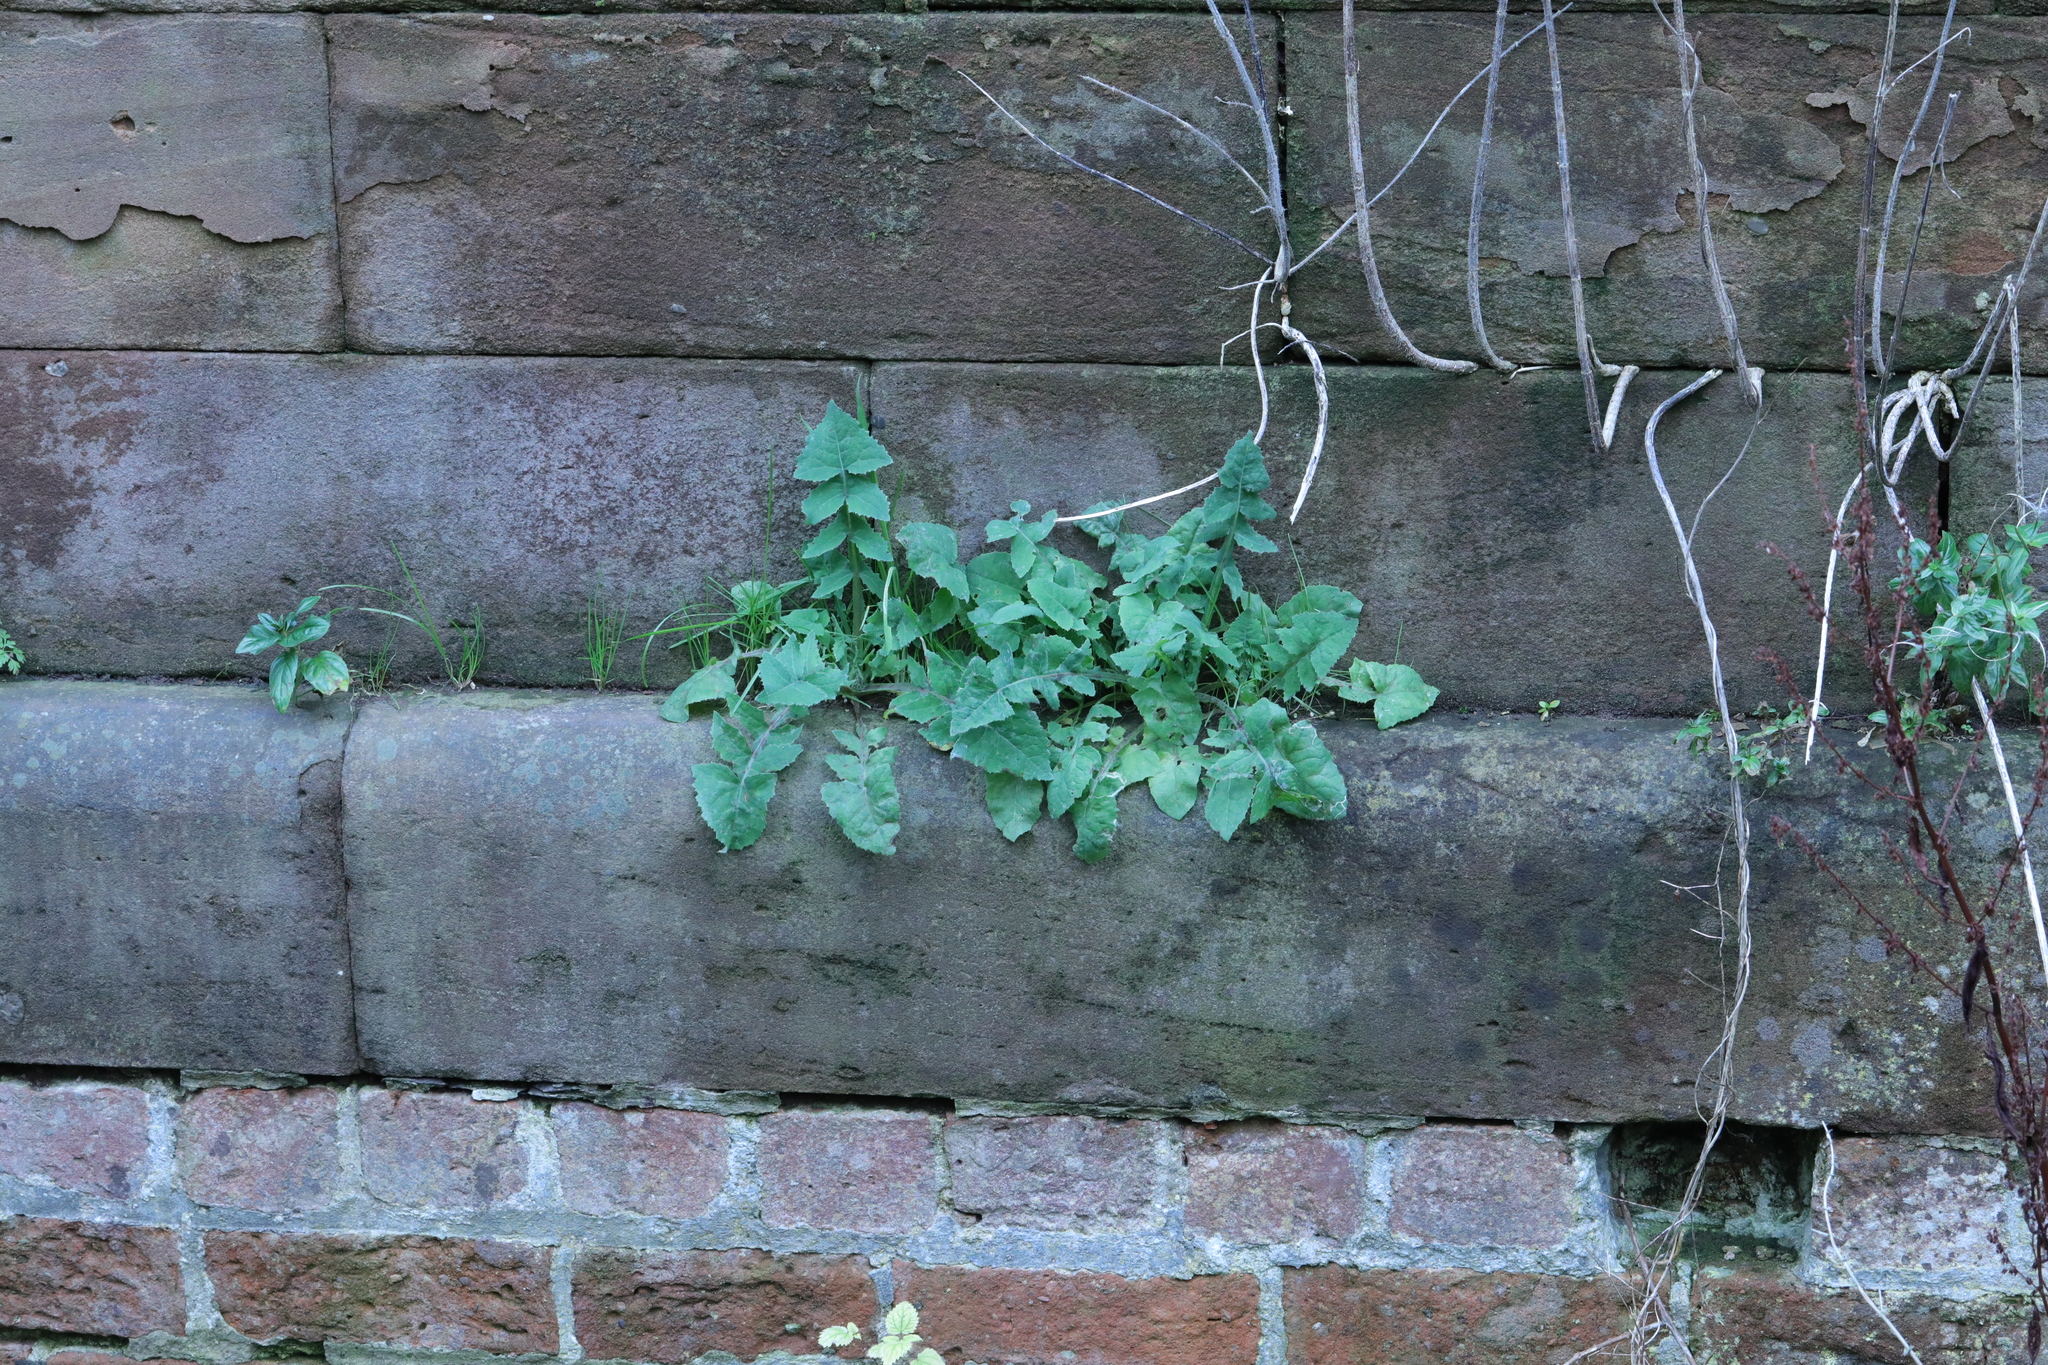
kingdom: Plantae
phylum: Tracheophyta
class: Magnoliopsida
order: Asterales
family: Asteraceae
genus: Sonchus
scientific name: Sonchus oleraceus
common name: Common sowthistle
